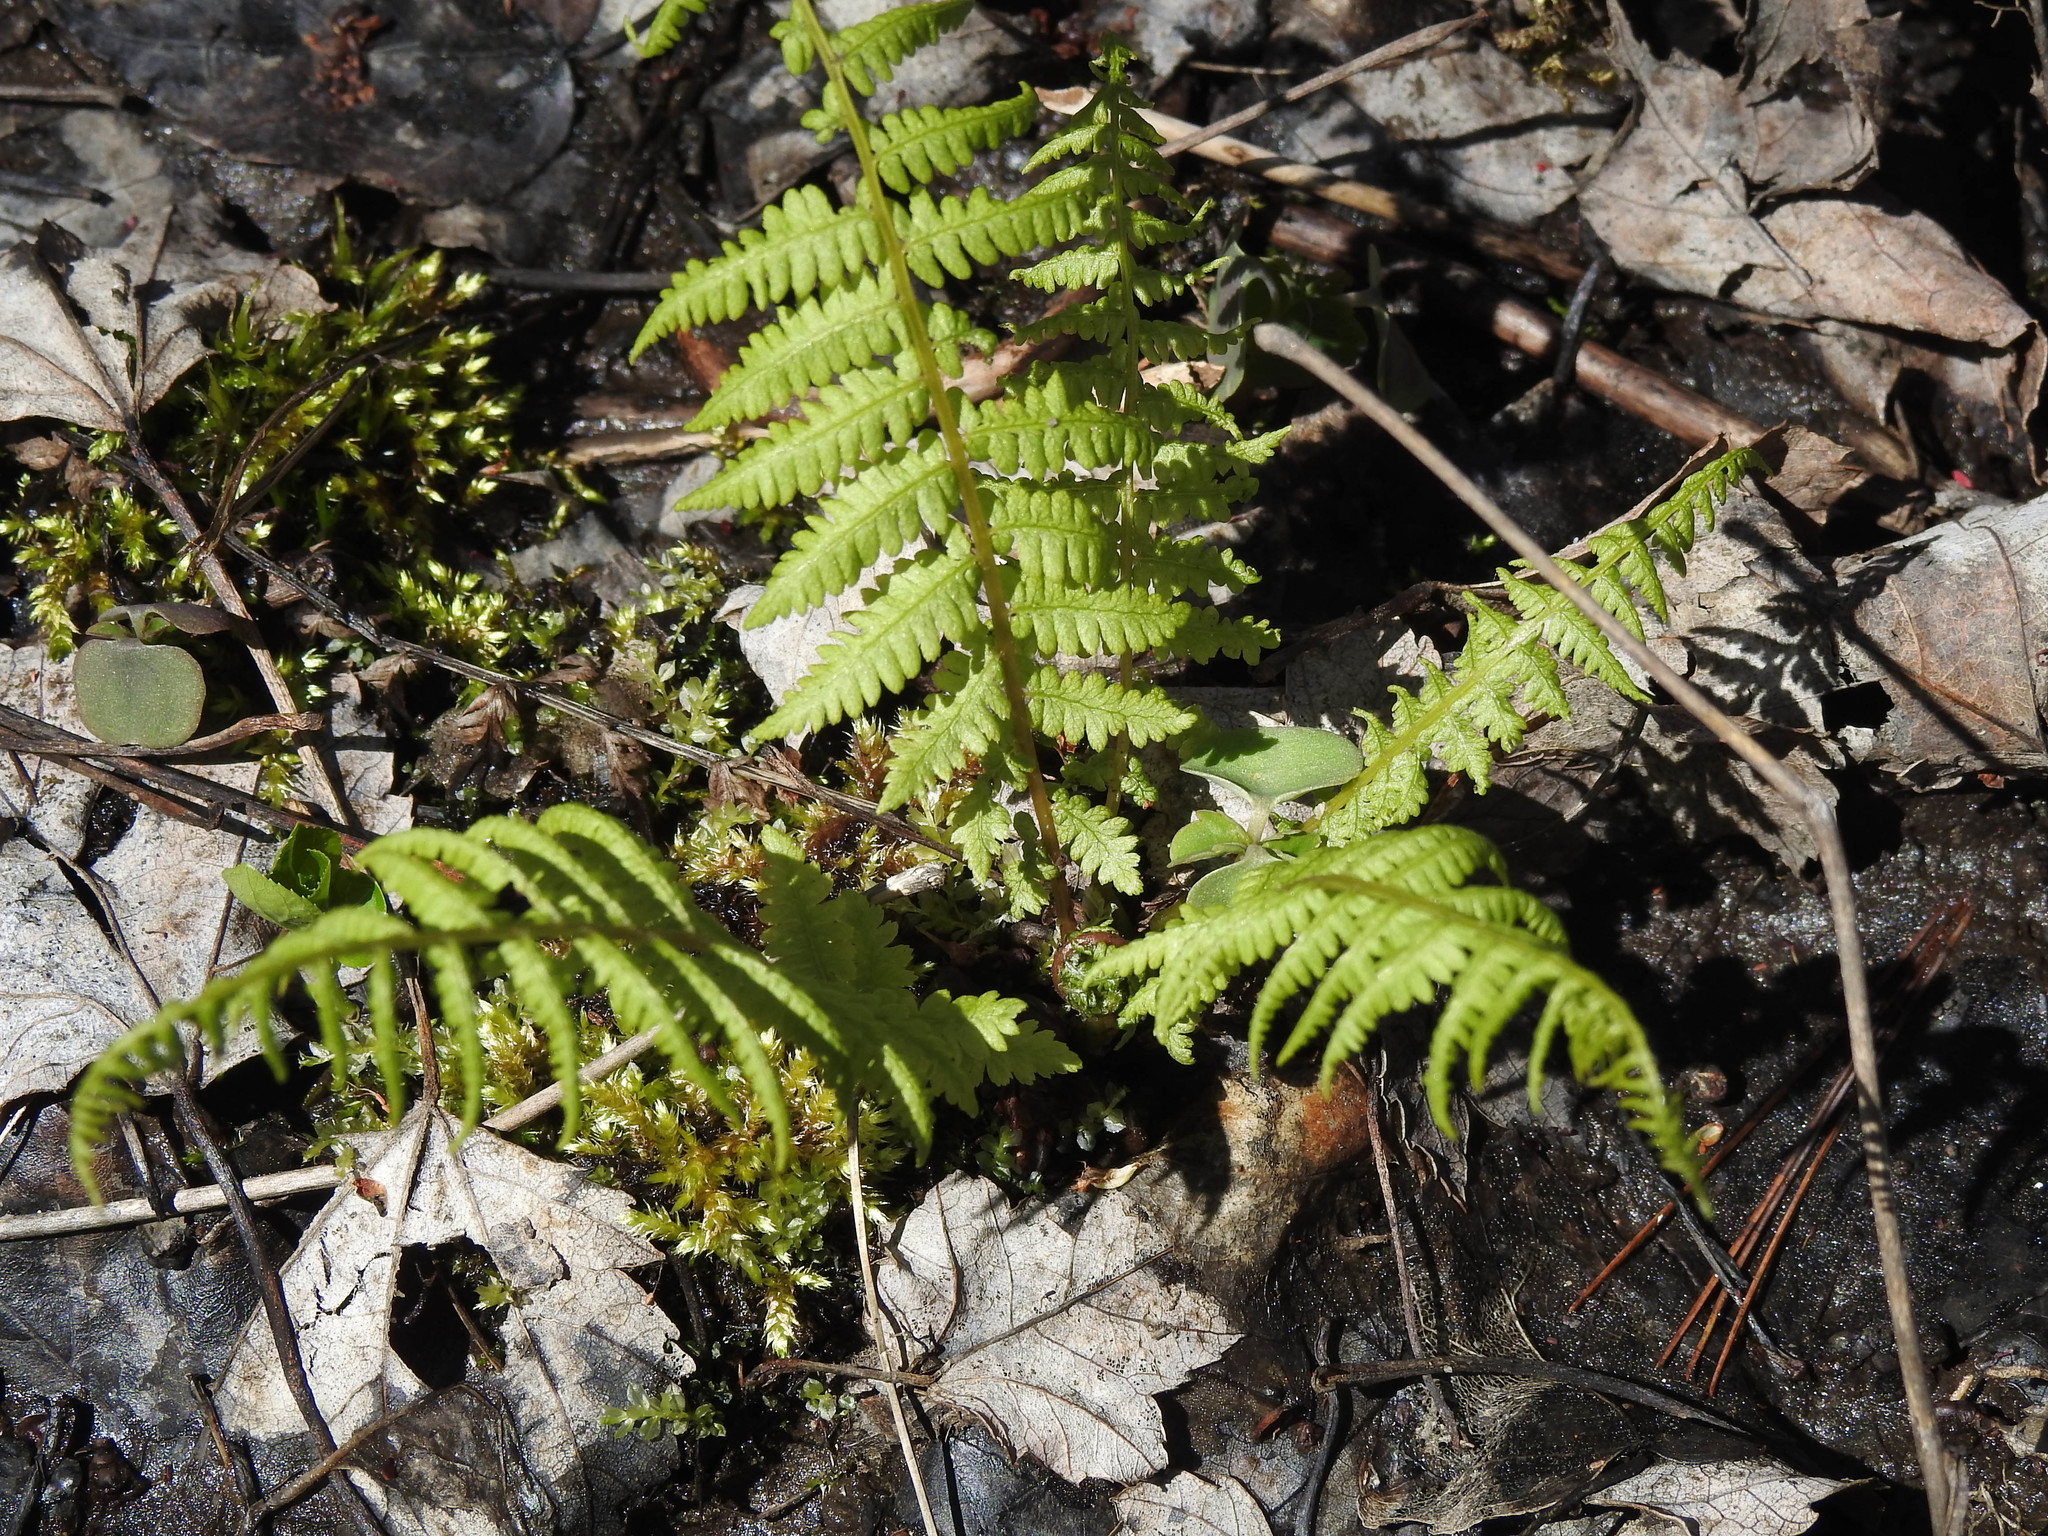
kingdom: Plantae
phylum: Tracheophyta
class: Polypodiopsida
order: Polypodiales
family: Athyriaceae
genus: Athyrium
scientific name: Athyrium angustum
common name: Northern lady fern
